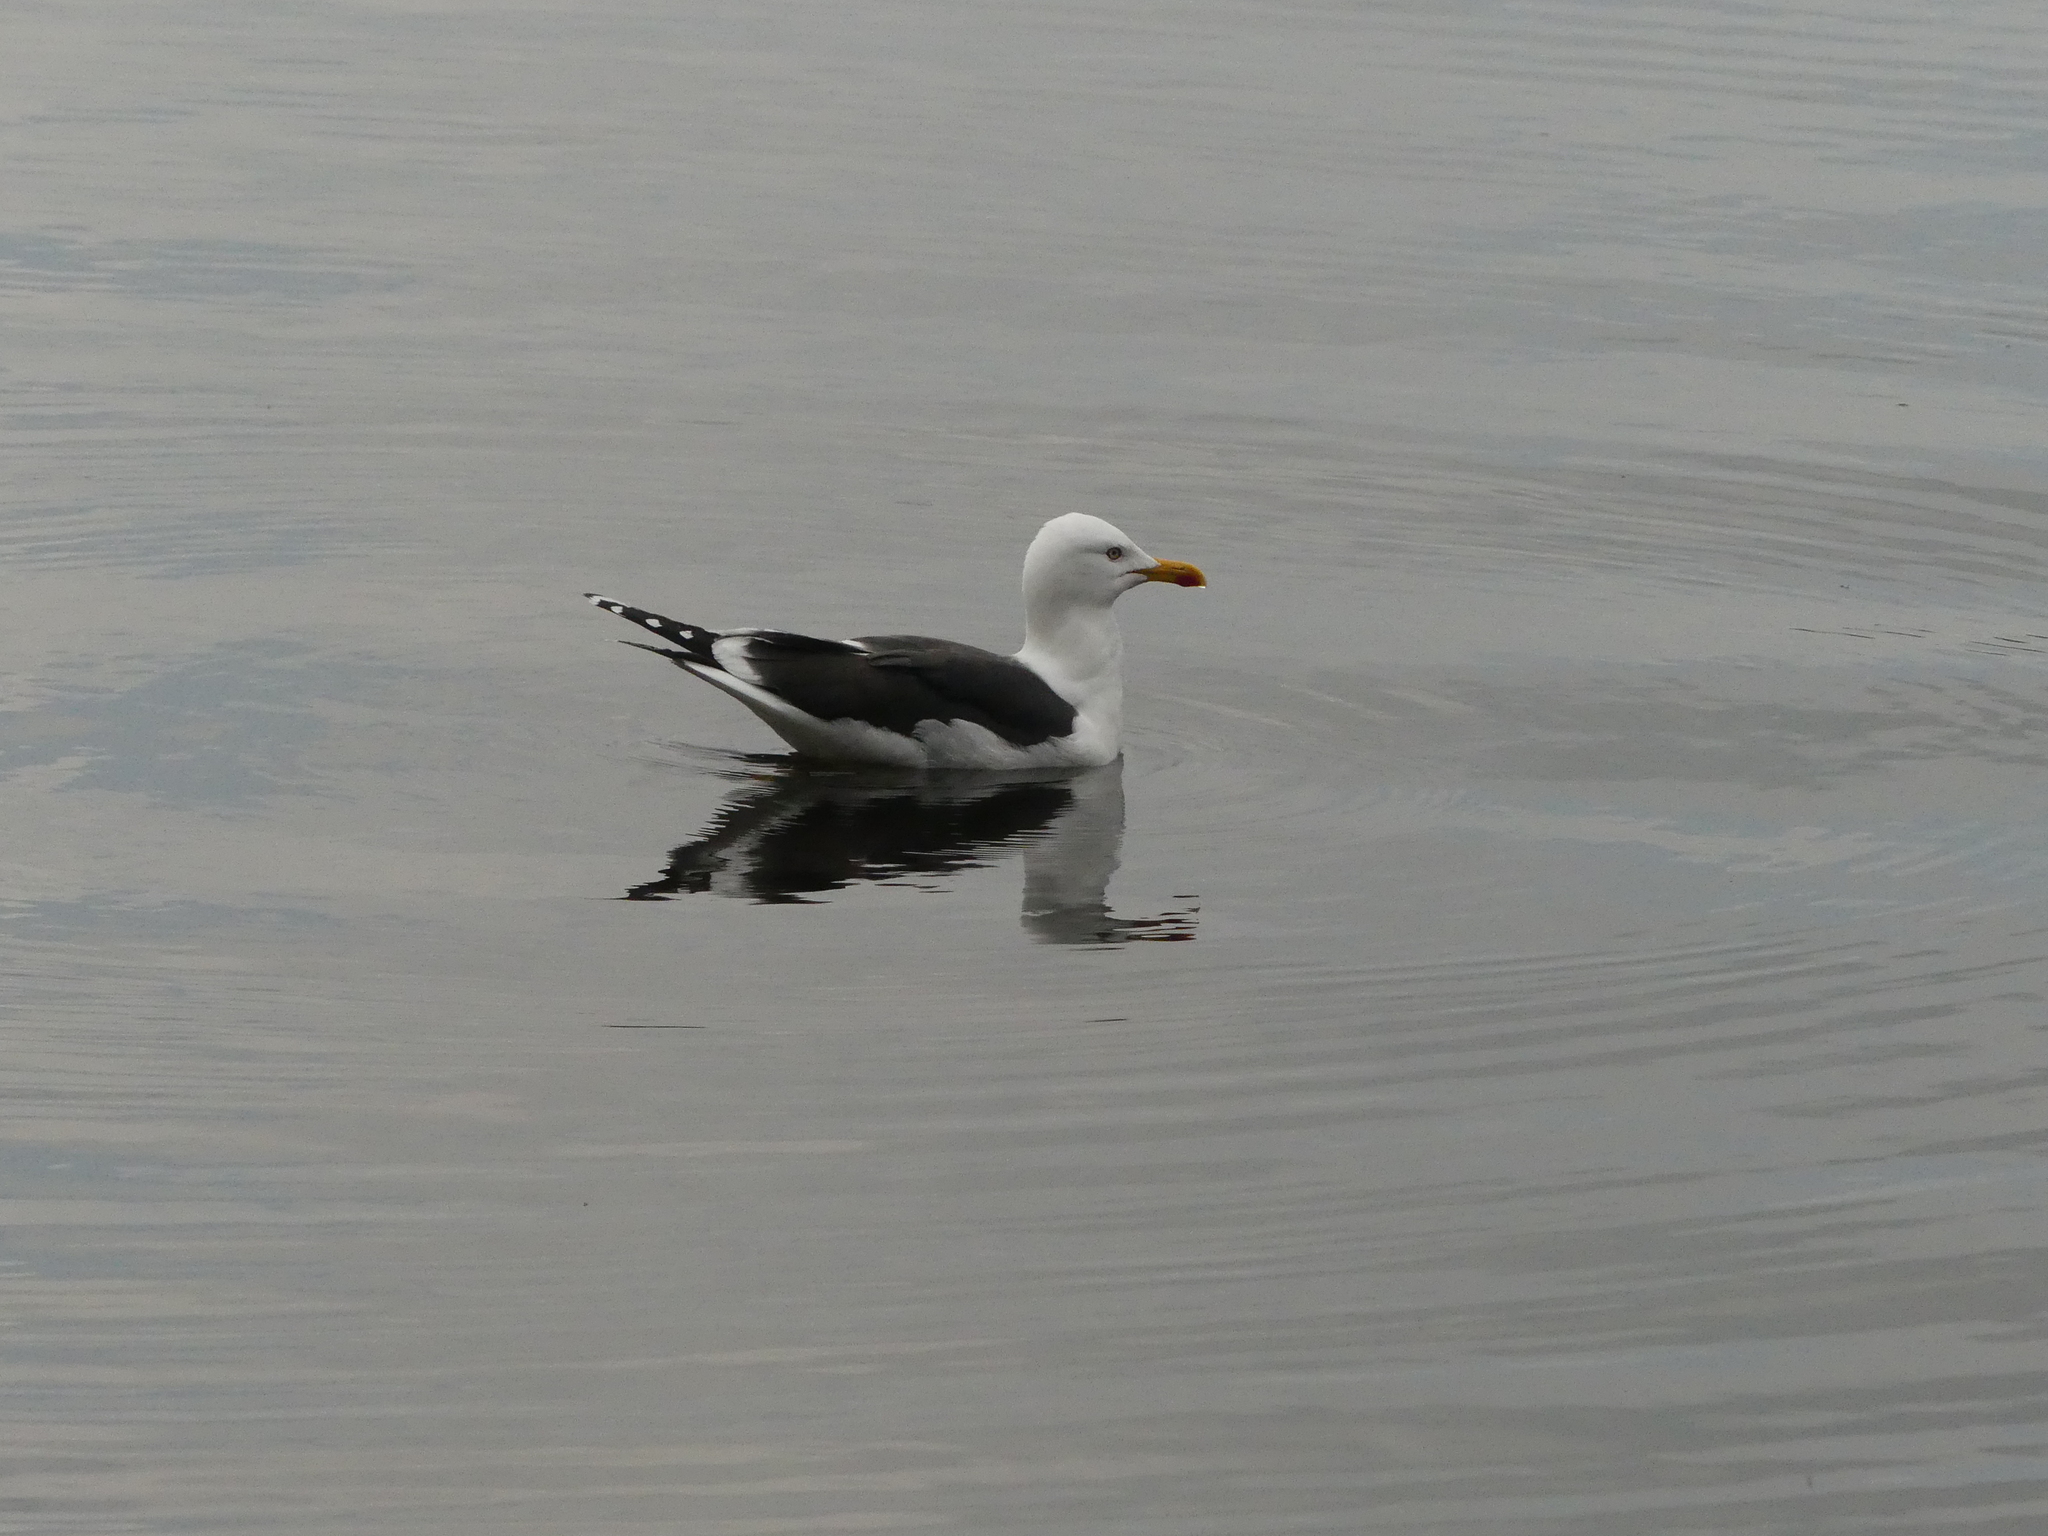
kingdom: Animalia
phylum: Chordata
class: Aves
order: Charadriiformes
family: Laridae
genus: Larus
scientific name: Larus fuscus
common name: Lesser black-backed gull
